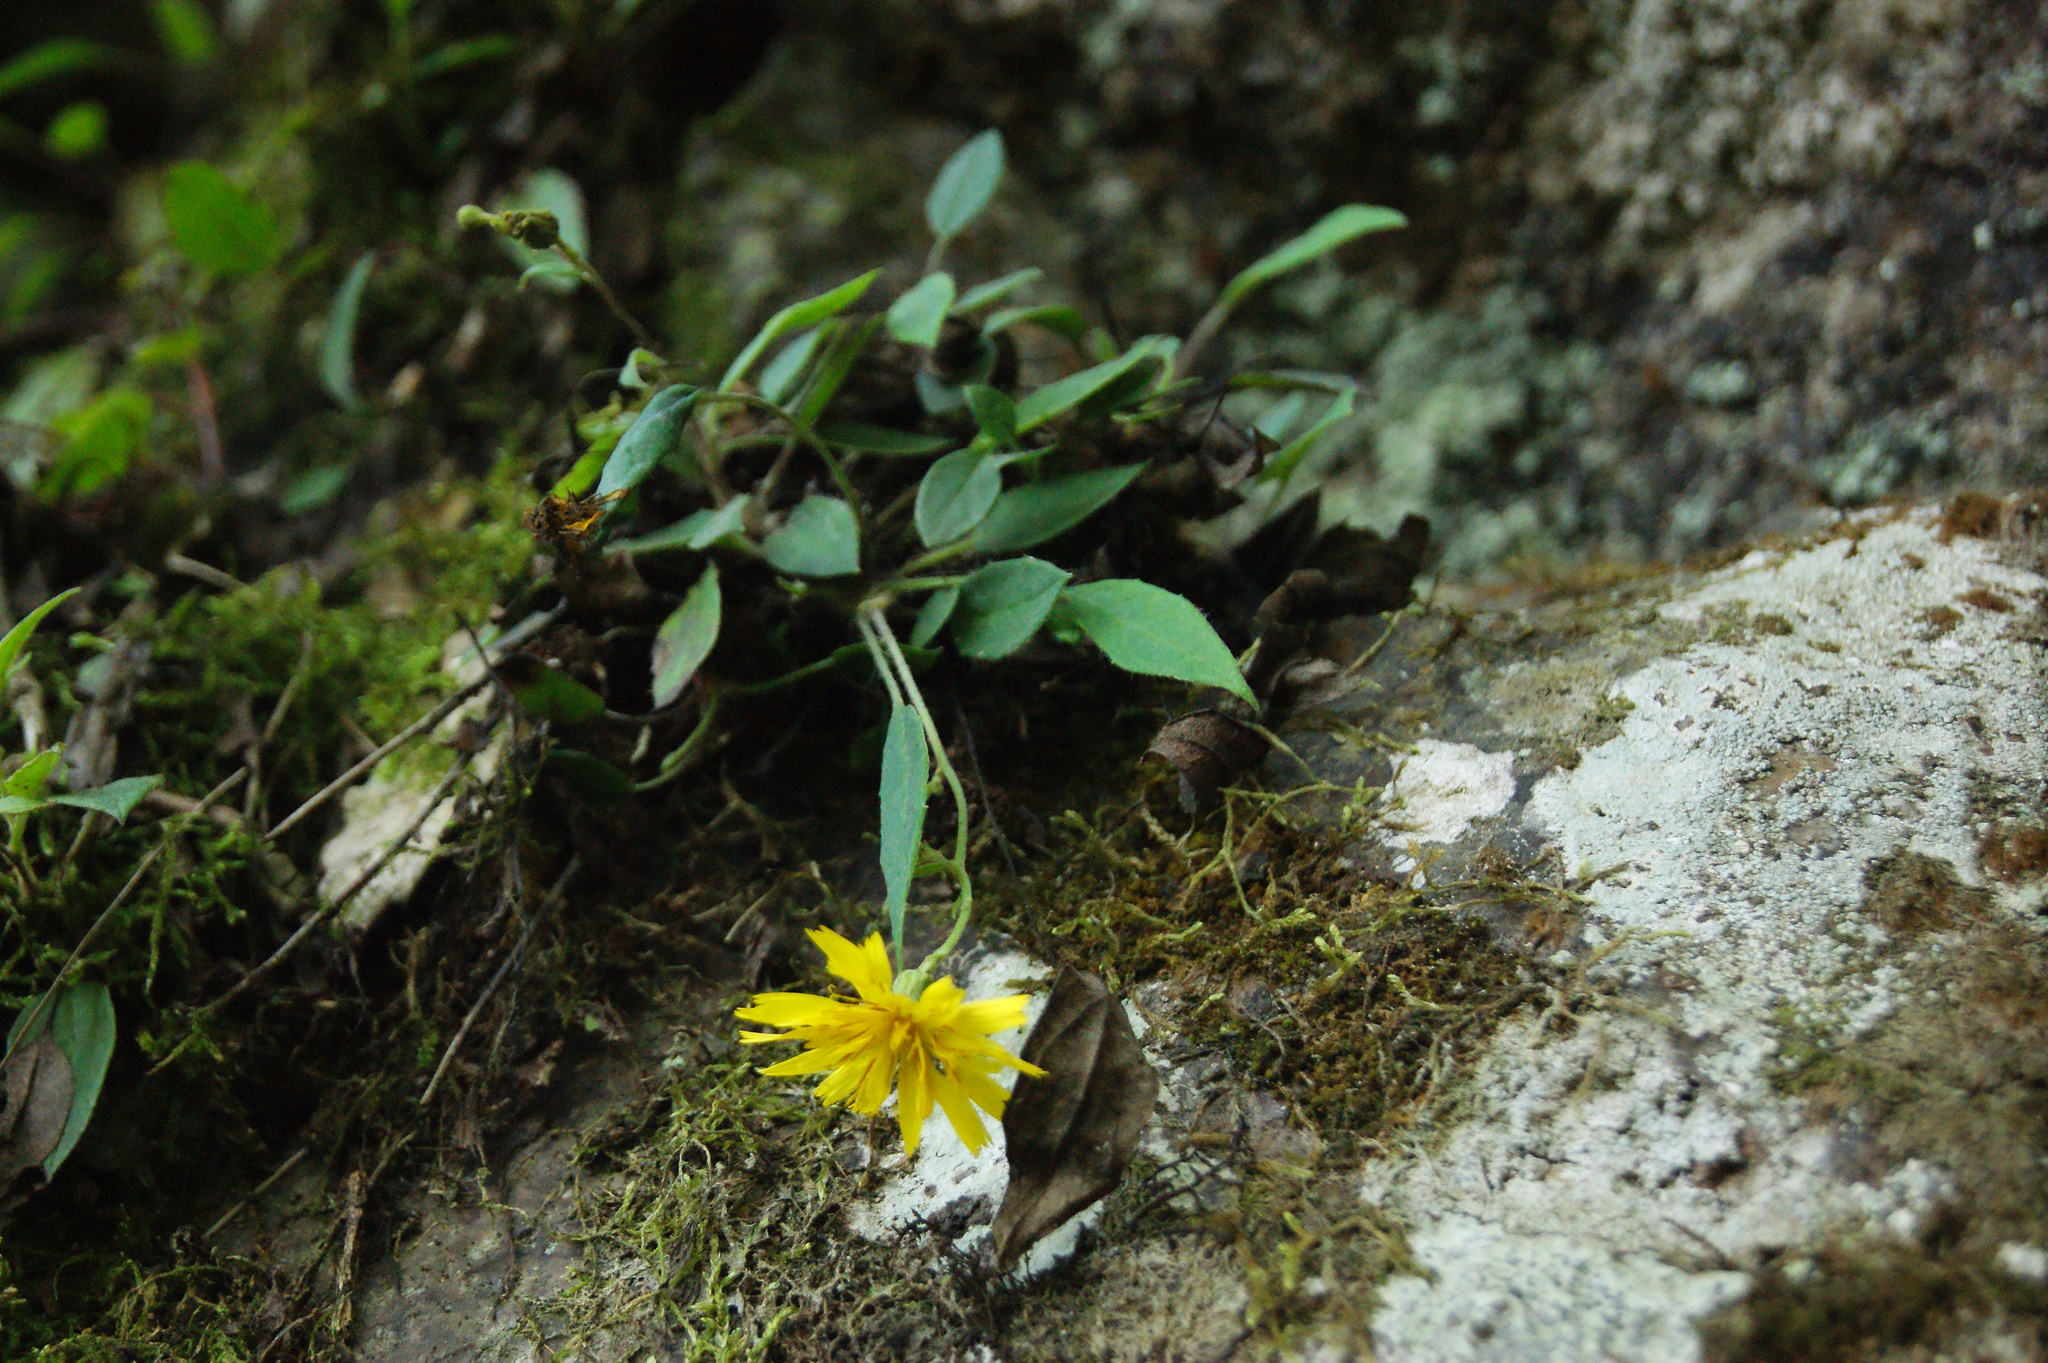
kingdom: Plantae
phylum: Tracheophyta
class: Magnoliopsida
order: Asterales
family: Asteraceae
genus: Hieracium
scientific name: Hieracium beamanii
